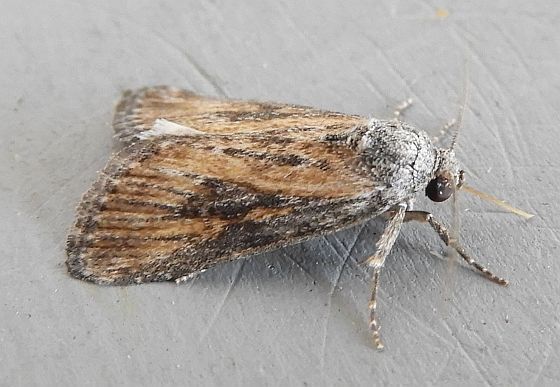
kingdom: Animalia
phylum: Arthropoda
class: Insecta
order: Lepidoptera
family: Noctuidae
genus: Condica
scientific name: Condica egestis
